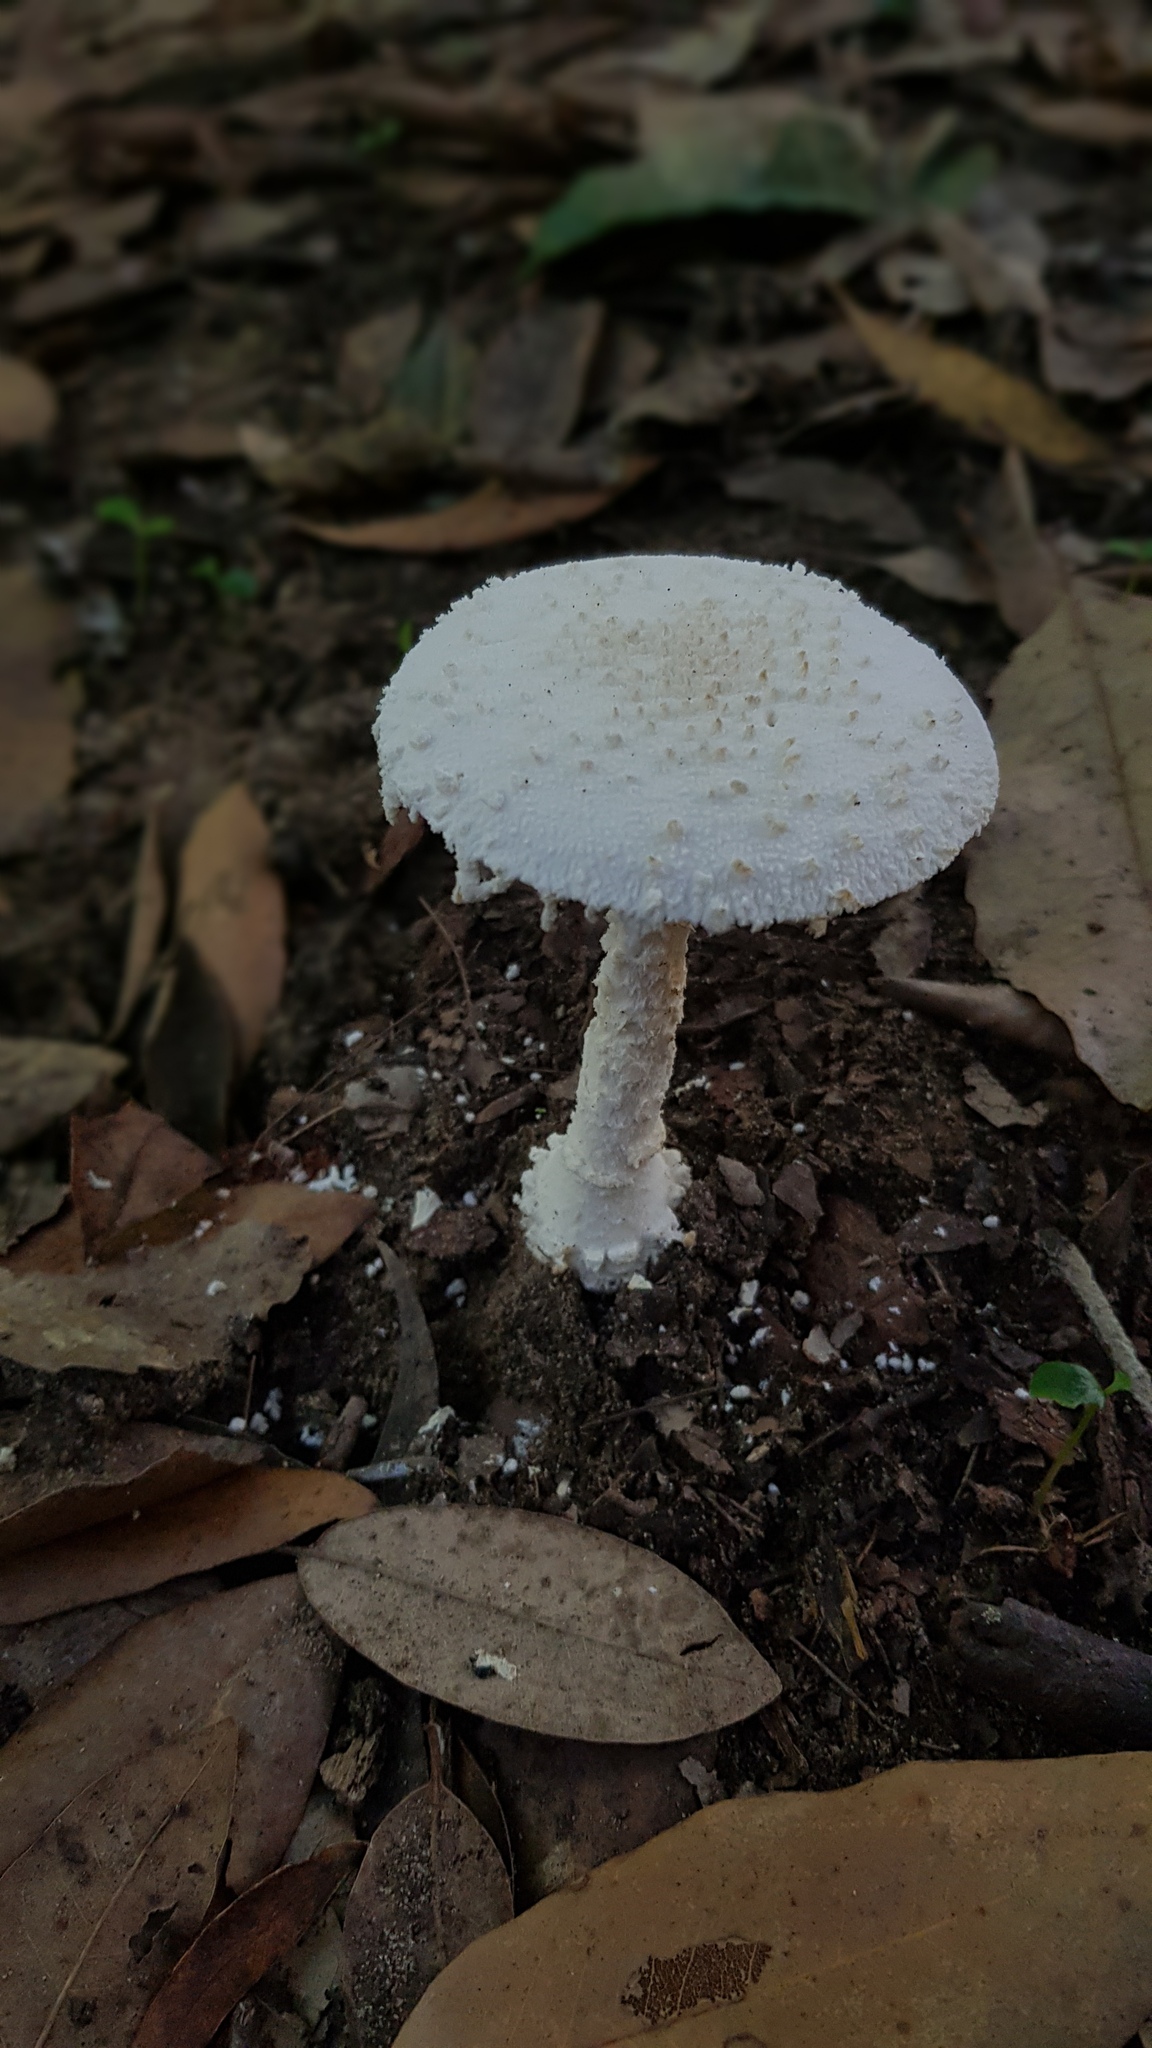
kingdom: Fungi
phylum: Basidiomycota
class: Agaricomycetes
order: Agaricales
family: Amanitaceae
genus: Amanita
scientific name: Amanita farinacea
